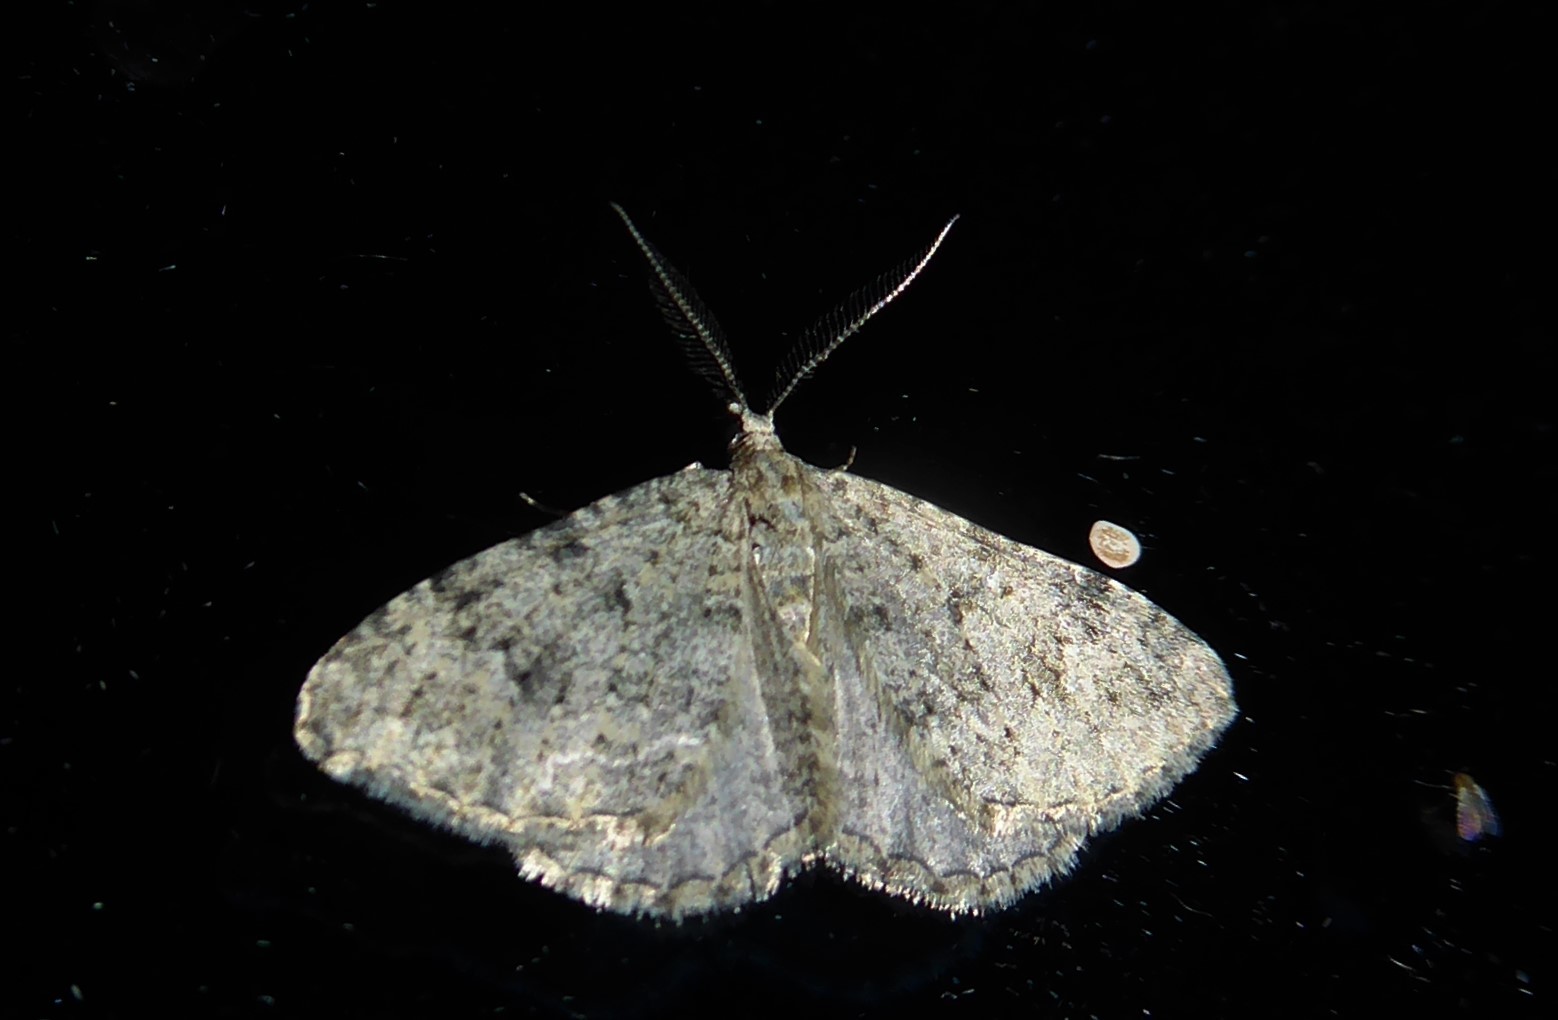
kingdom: Animalia
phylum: Arthropoda
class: Insecta
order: Lepidoptera
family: Geometridae
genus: Helastia
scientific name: Helastia corcularia
